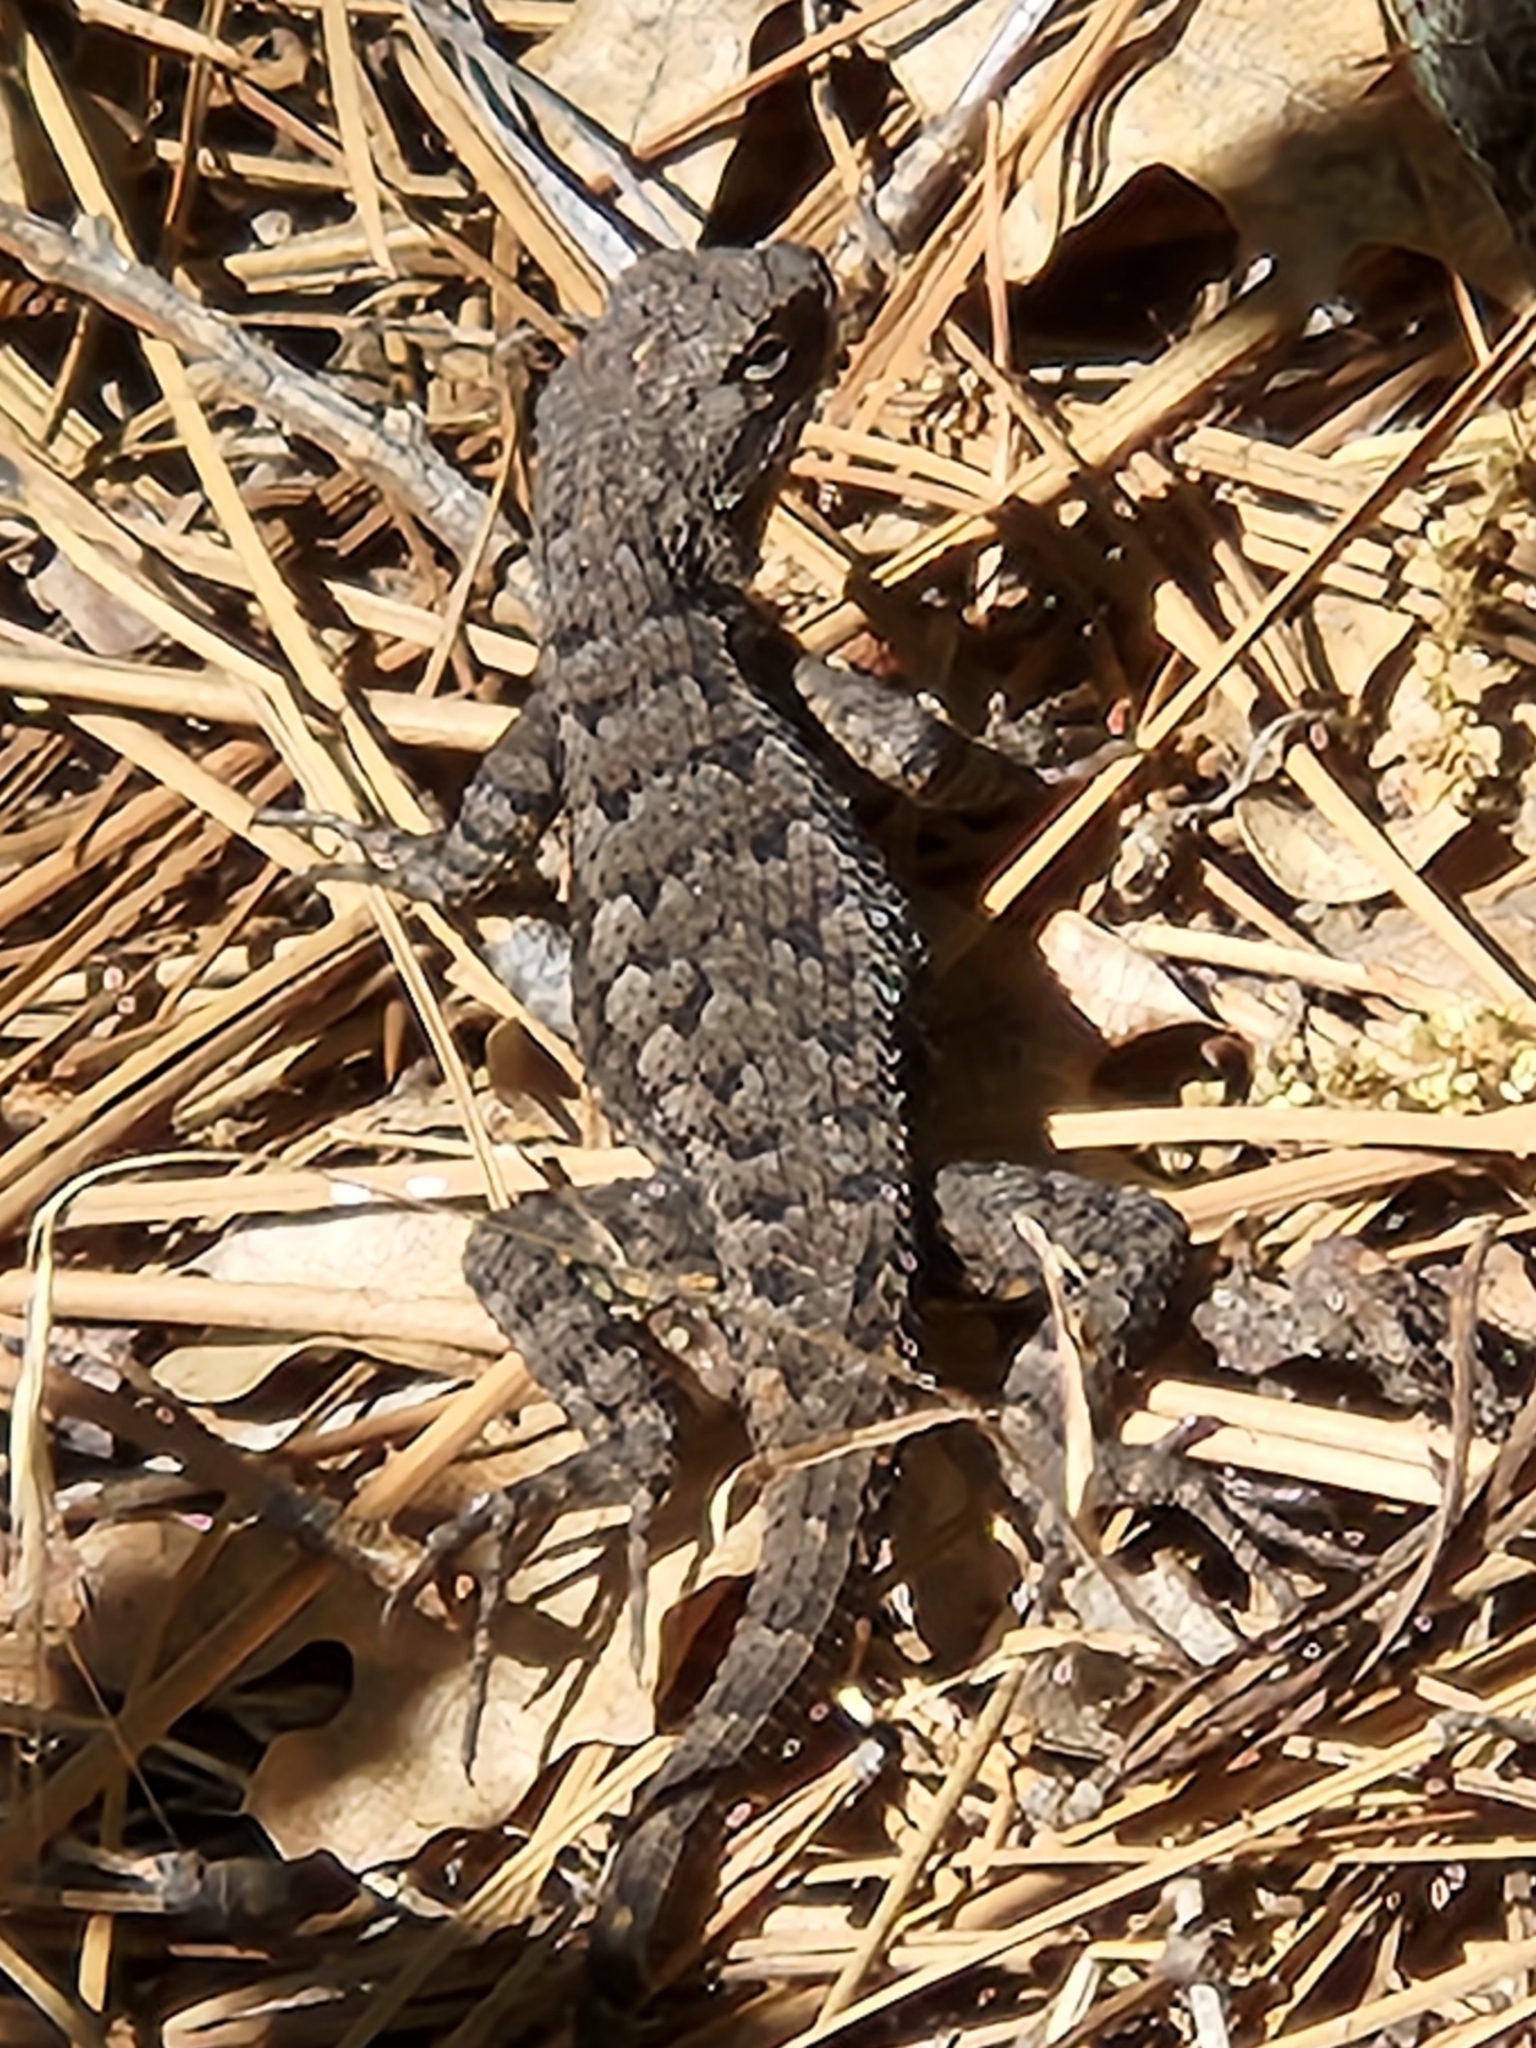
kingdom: Animalia
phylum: Chordata
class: Squamata
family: Phrynosomatidae
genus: Sceloporus
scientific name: Sceloporus occidentalis
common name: Western fence lizard
